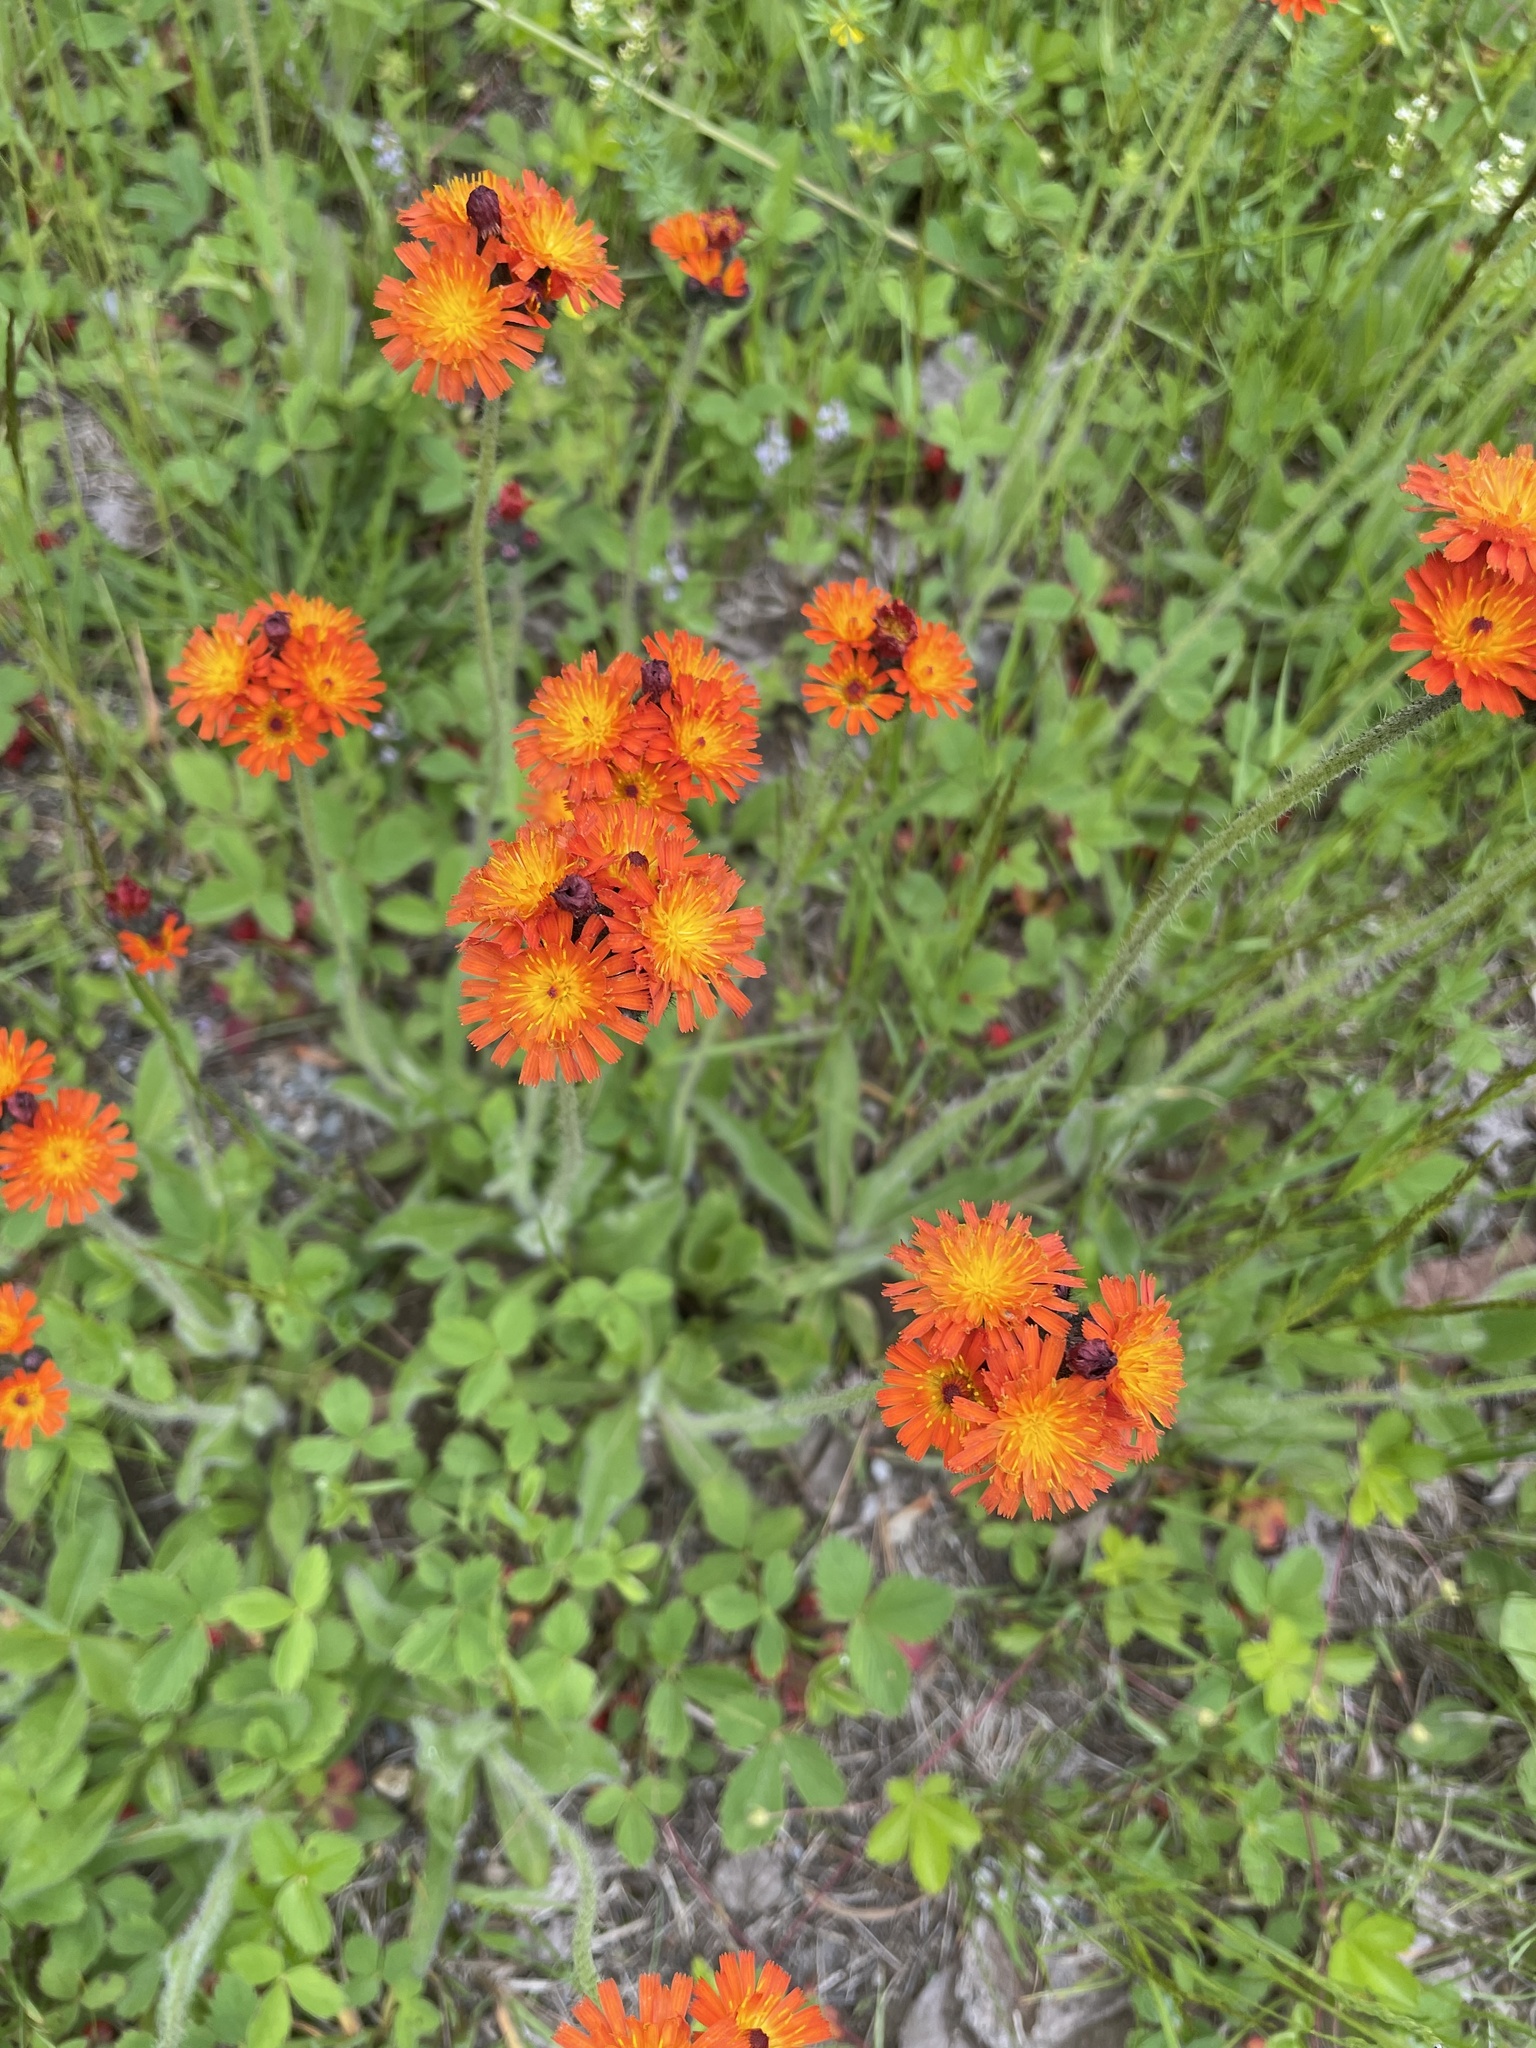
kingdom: Plantae
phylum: Tracheophyta
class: Magnoliopsida
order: Asterales
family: Asteraceae
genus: Pilosella
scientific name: Pilosella aurantiaca
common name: Fox-and-cubs
